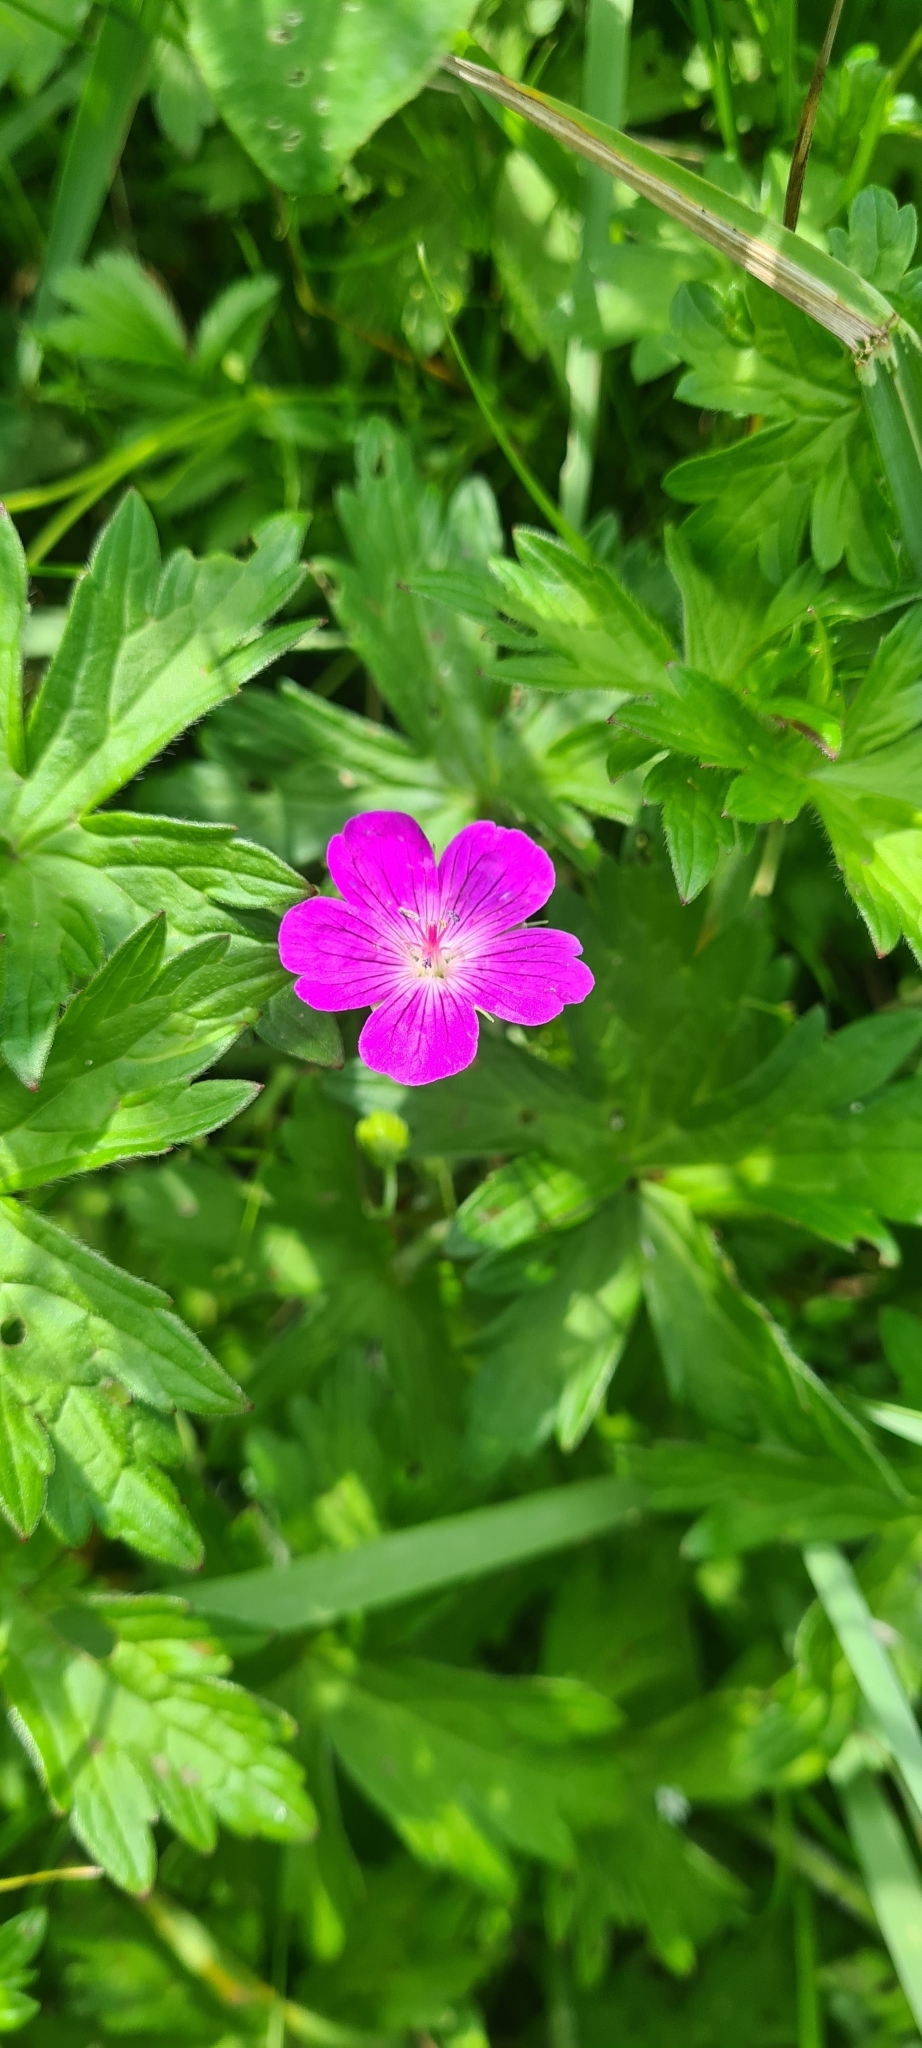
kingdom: Plantae
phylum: Tracheophyta
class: Magnoliopsida
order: Geraniales
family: Geraniaceae
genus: Geranium
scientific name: Geranium palustre
